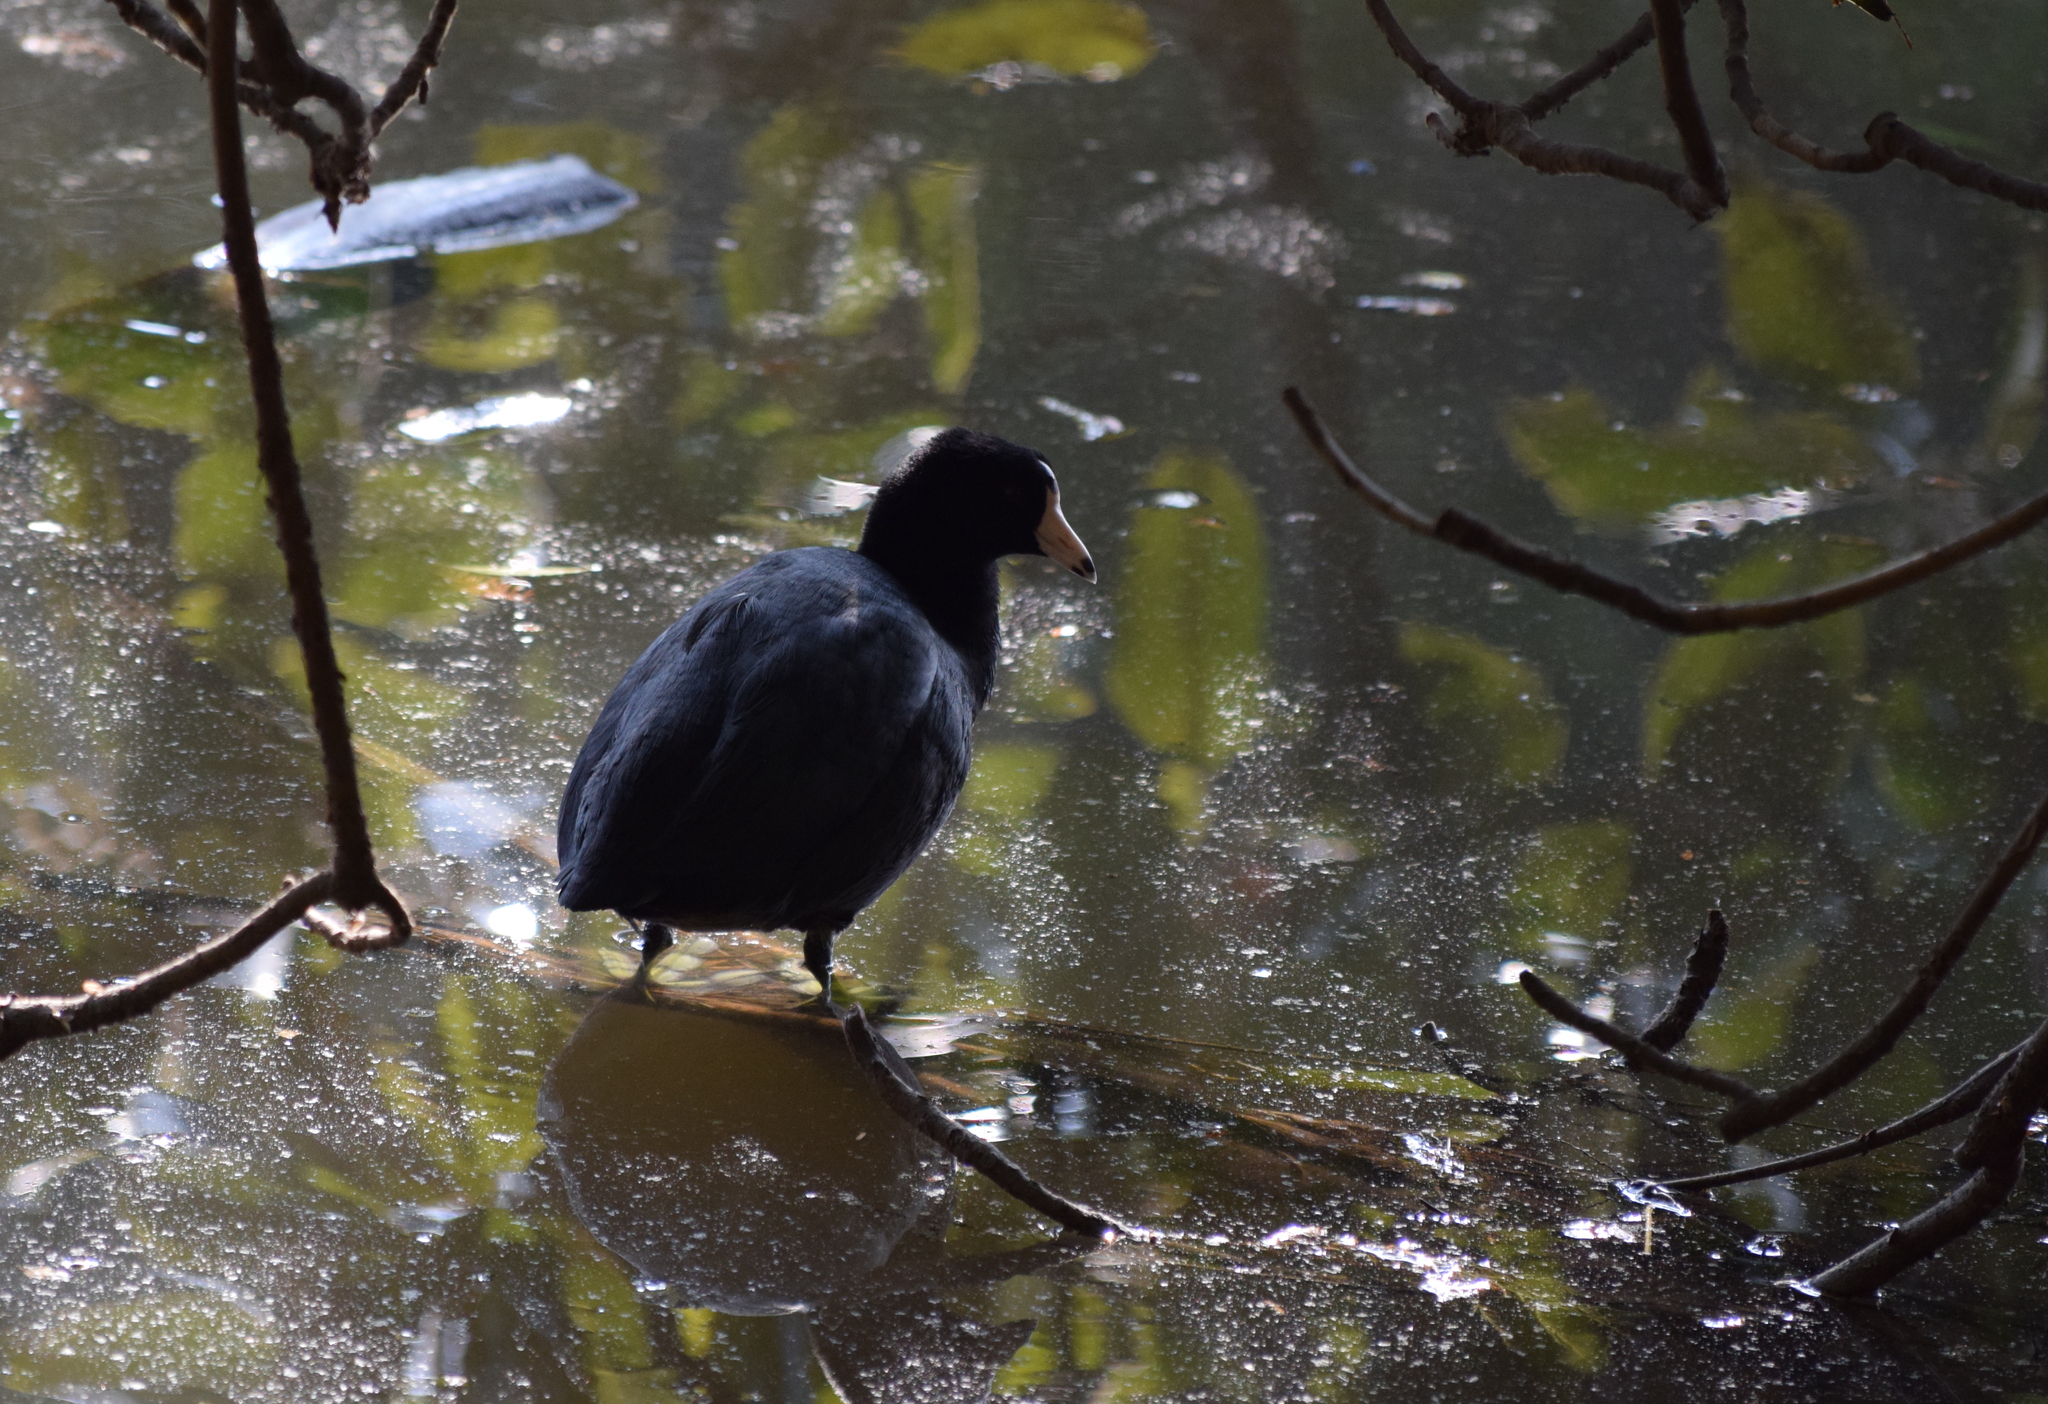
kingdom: Animalia
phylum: Chordata
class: Aves
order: Gruiformes
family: Rallidae
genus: Fulica
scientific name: Fulica americana
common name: American coot
